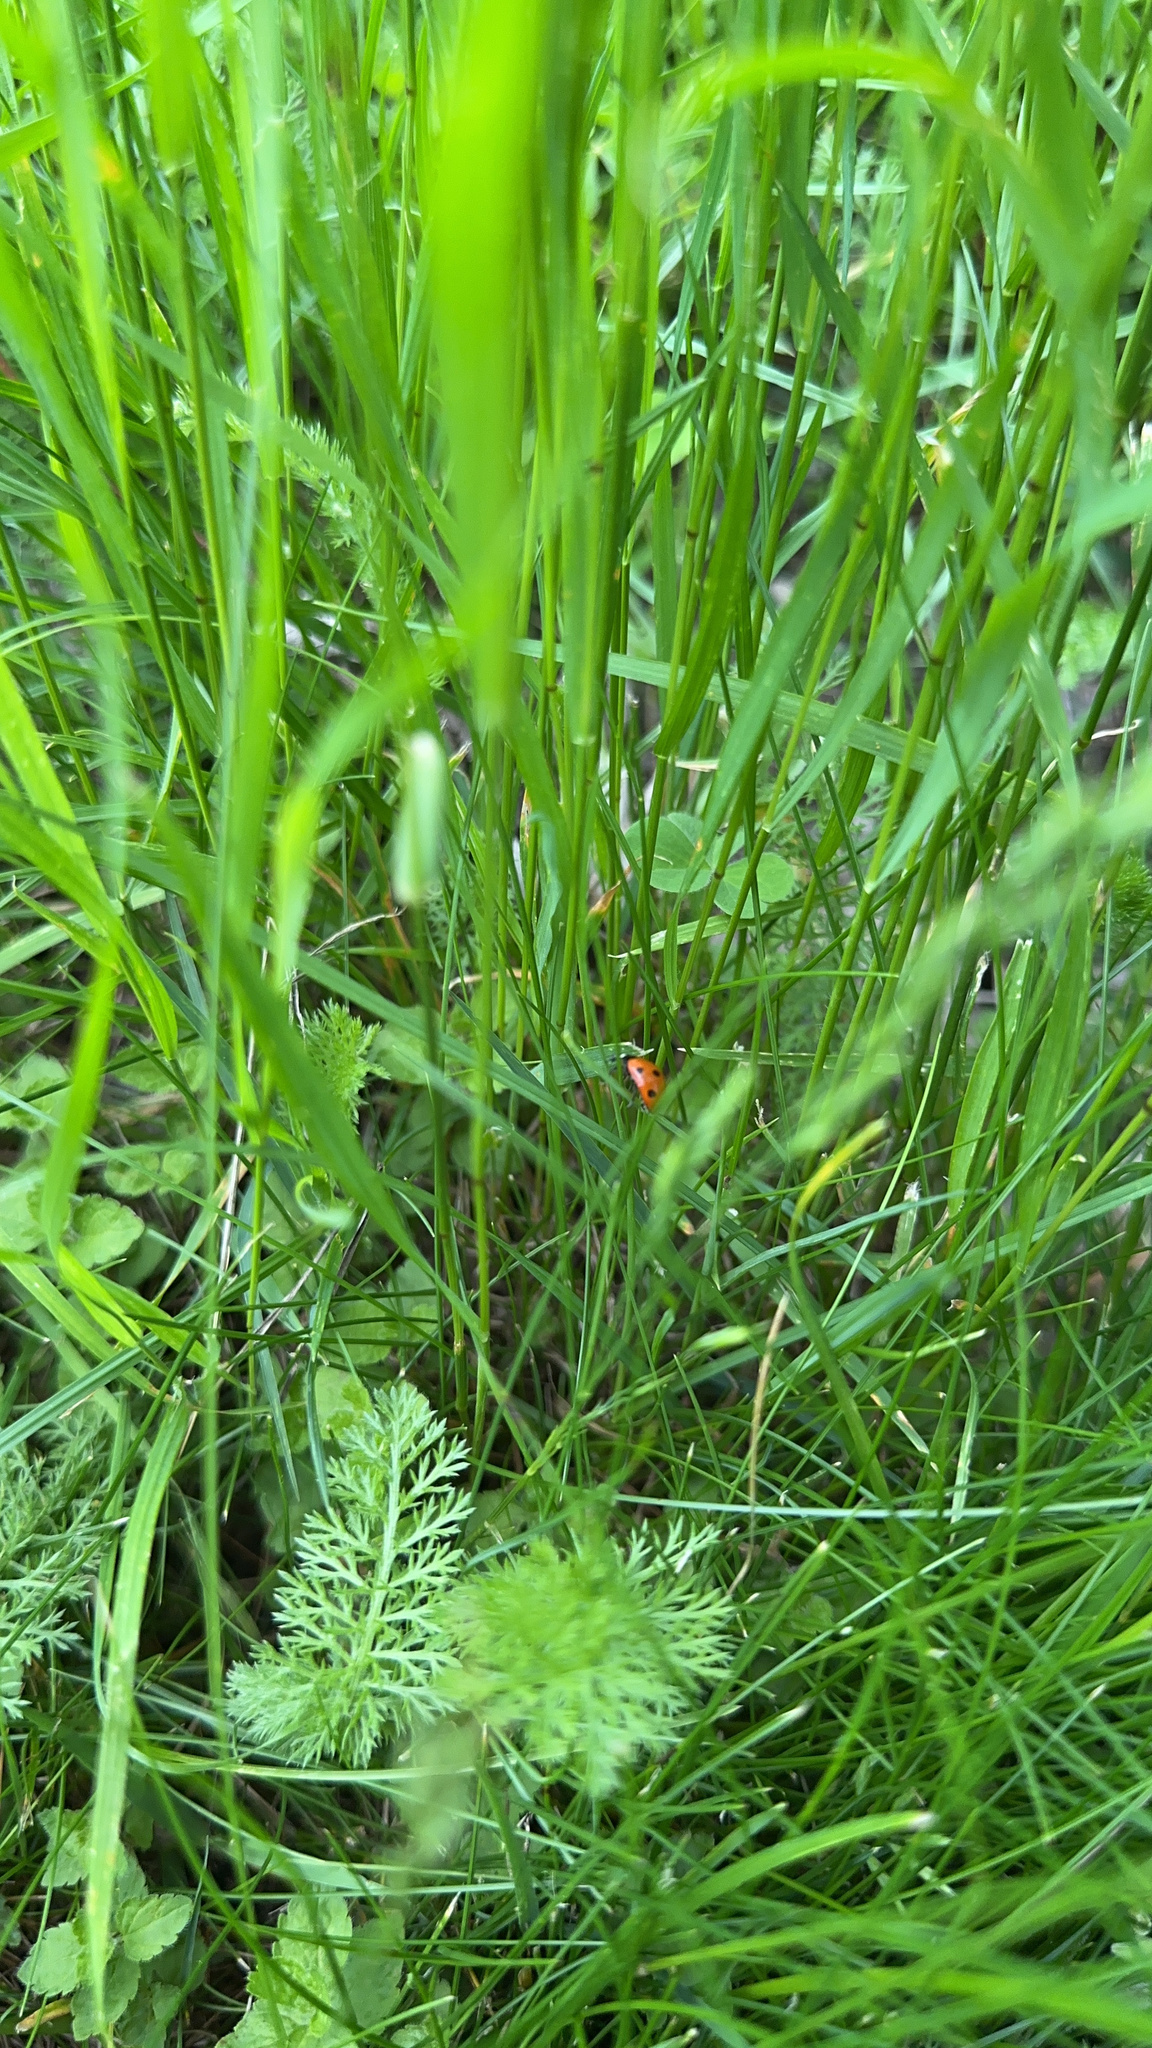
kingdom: Animalia
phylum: Arthropoda
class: Insecta
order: Coleoptera
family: Coccinellidae
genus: Coccinella
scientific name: Coccinella septempunctata
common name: Sevenspotted lady beetle
